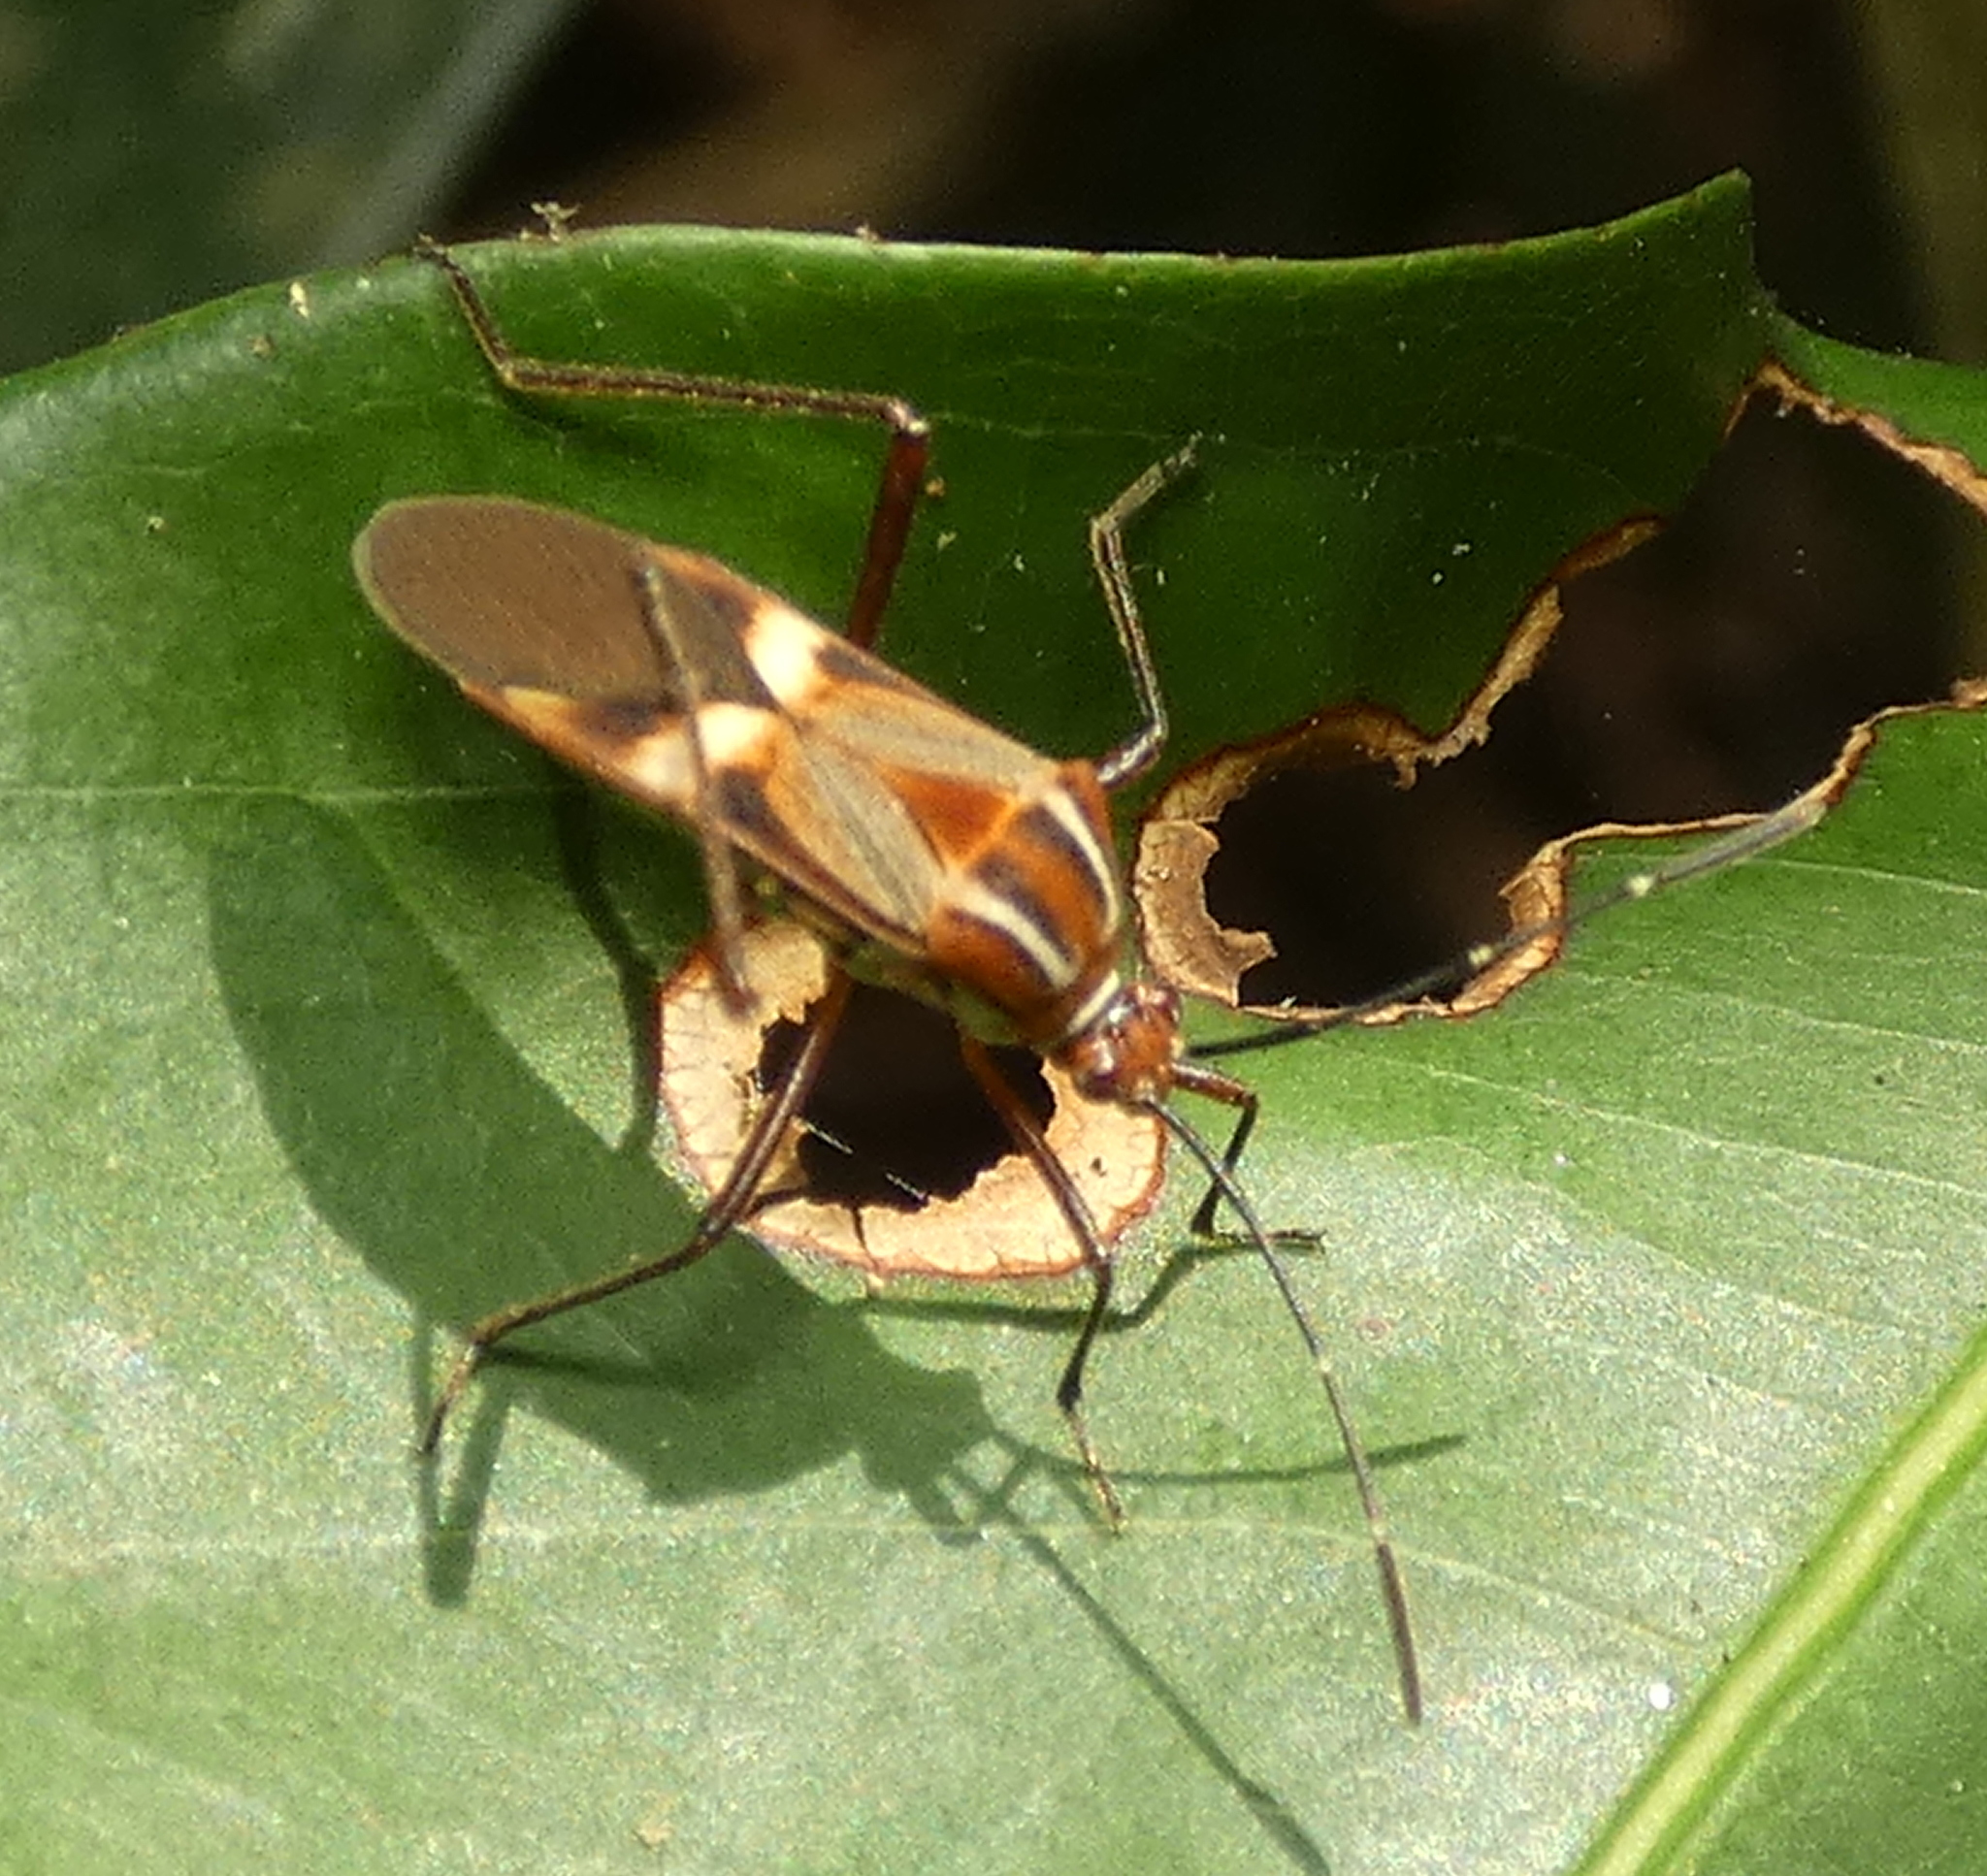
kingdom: Animalia
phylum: Arthropoda
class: Insecta
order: Hemiptera
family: Coreidae
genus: Hypselonotus
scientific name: Hypselonotus interruptus
